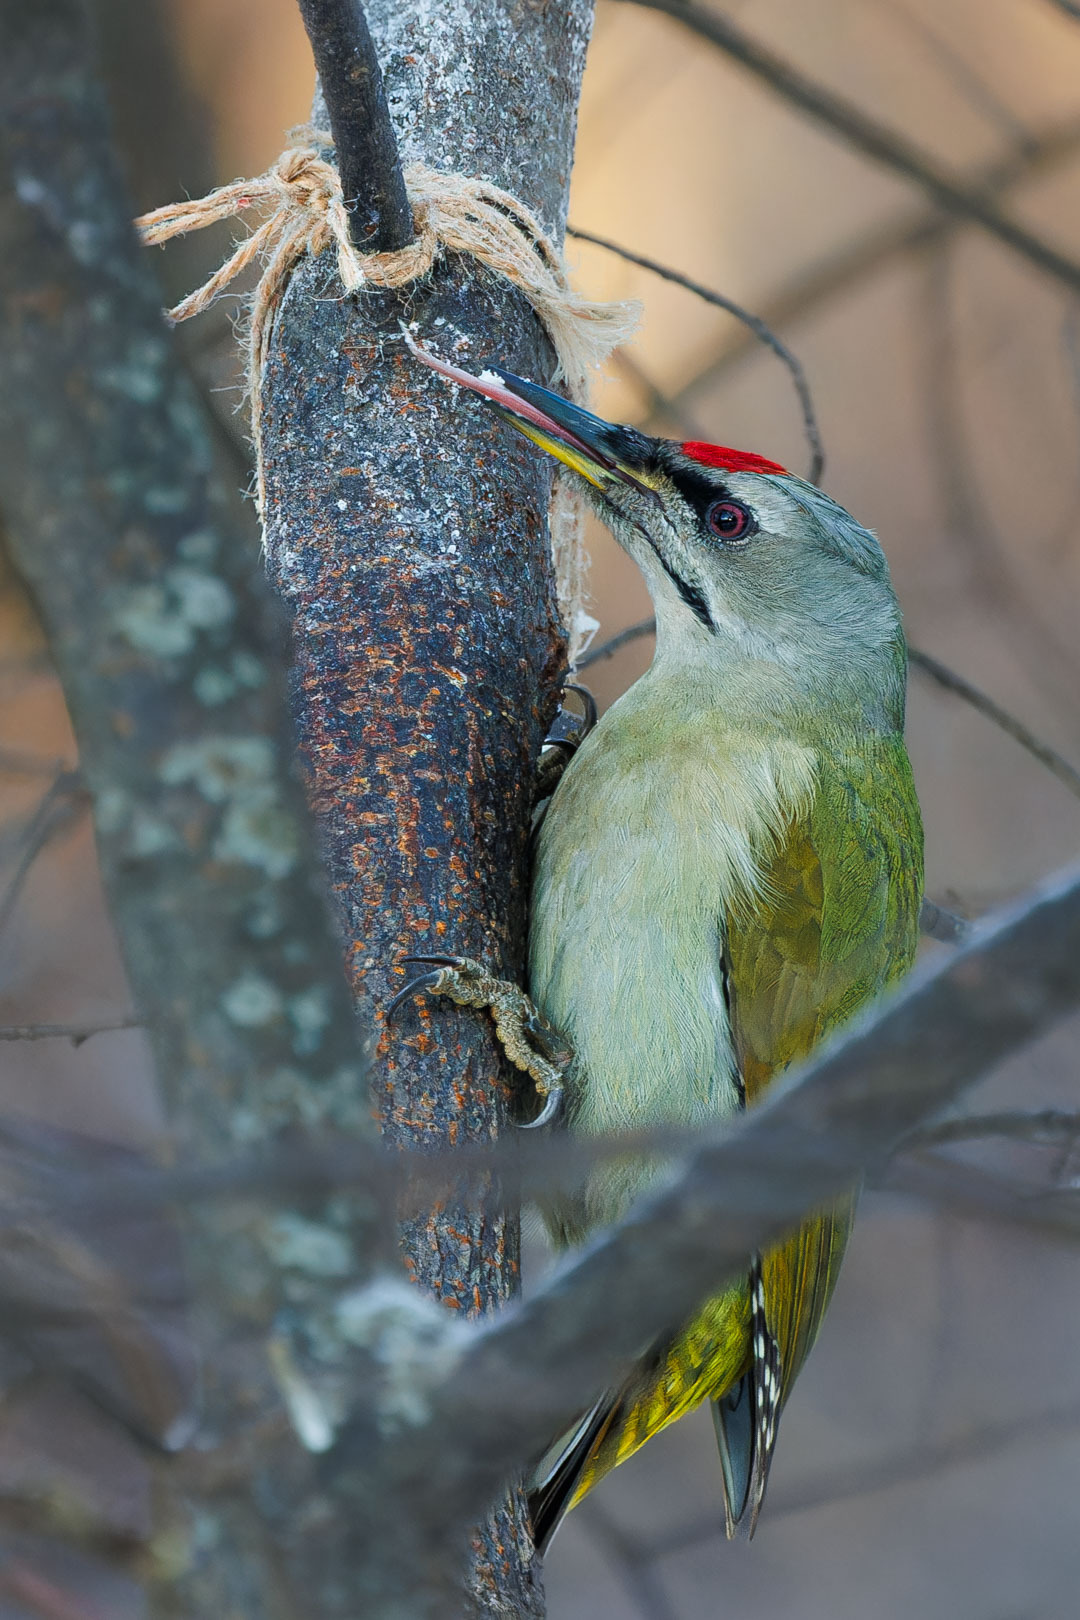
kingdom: Animalia
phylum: Chordata
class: Aves
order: Piciformes
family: Picidae
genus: Picus
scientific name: Picus canus
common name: Grey-headed woodpecker
